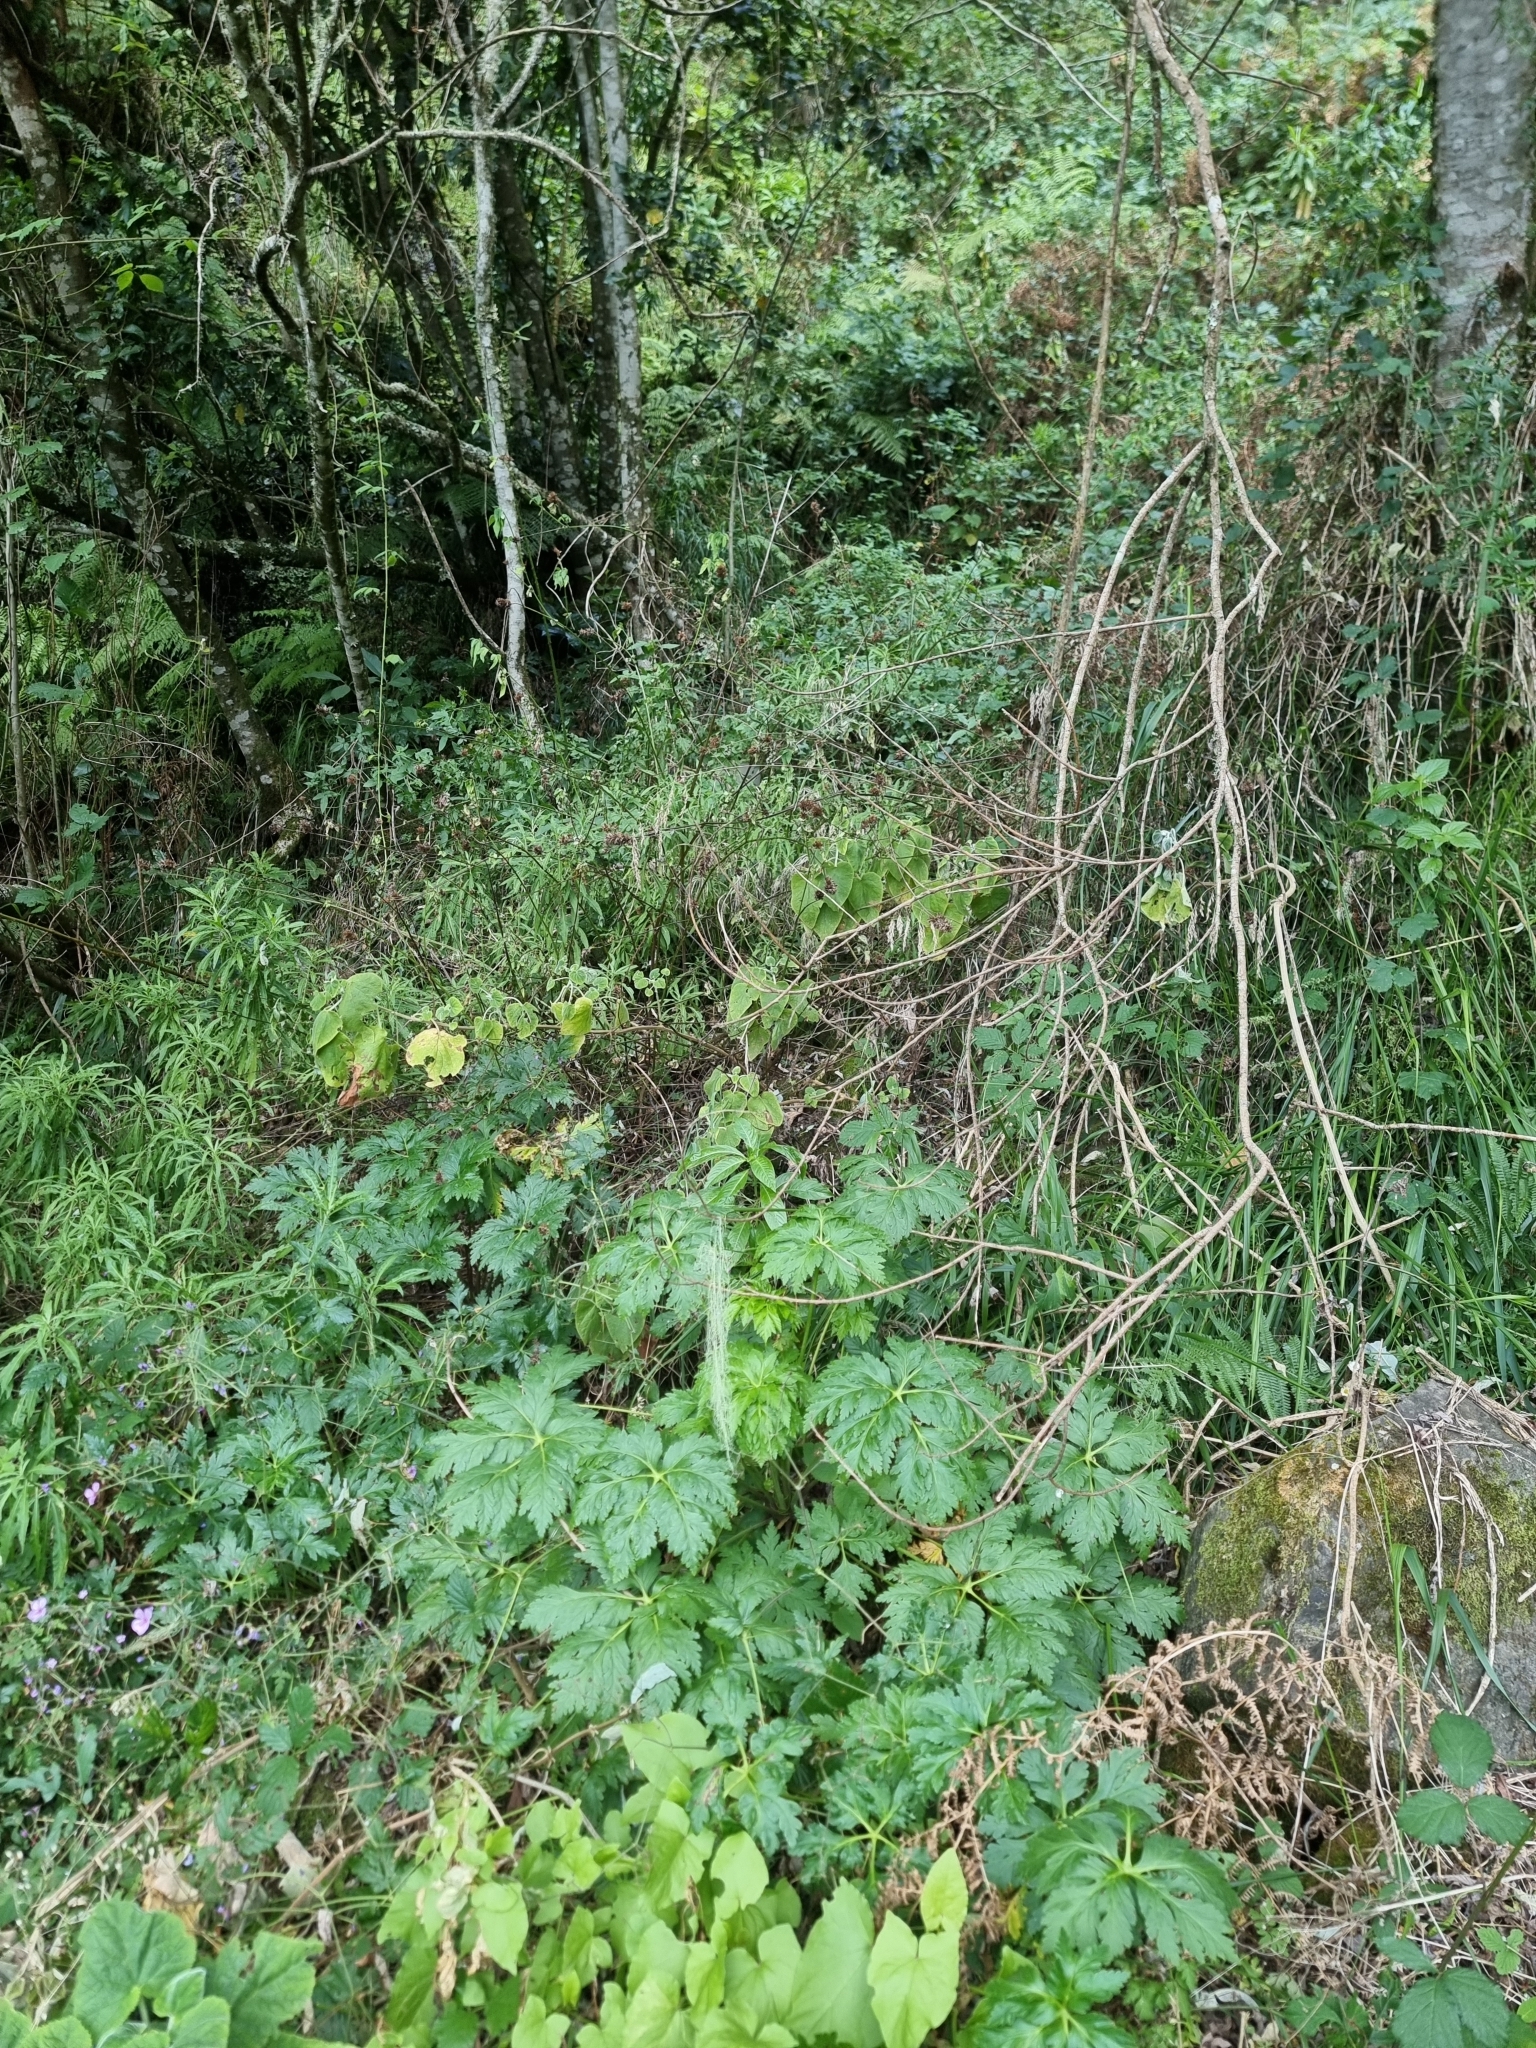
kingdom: Plantae
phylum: Tracheophyta
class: Magnoliopsida
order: Geraniales
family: Geraniaceae
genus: Geranium
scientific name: Geranium palmatum
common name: Canary island geranium
